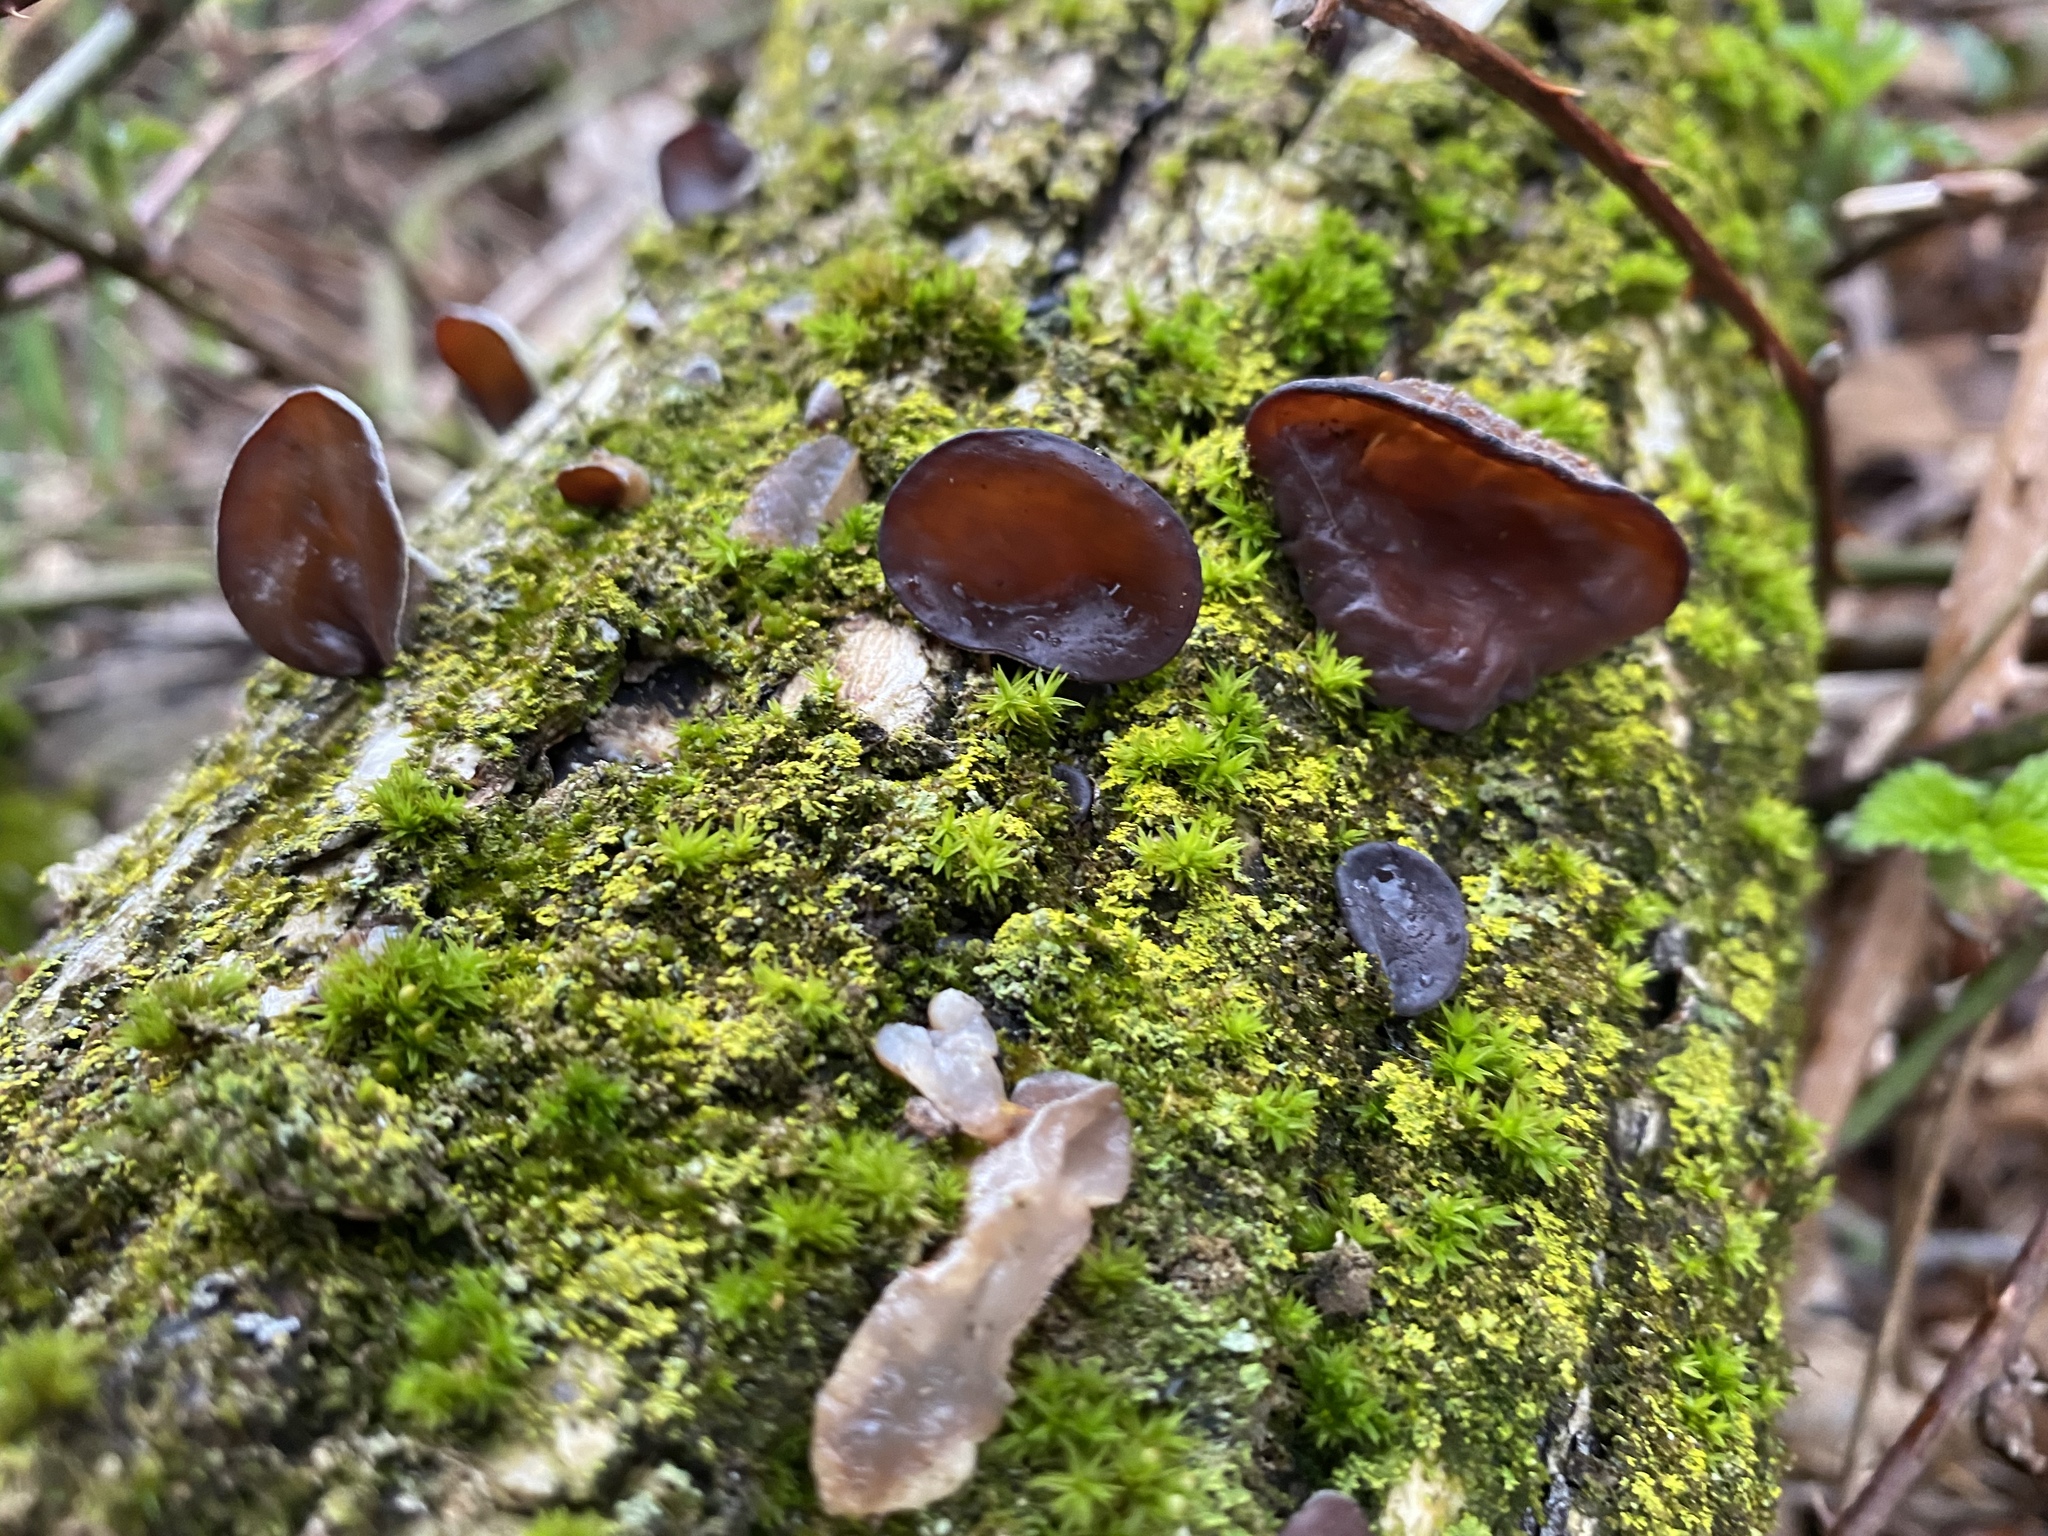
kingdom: Fungi
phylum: Basidiomycota
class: Agaricomycetes
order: Auriculariales
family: Auriculariaceae
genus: Auricularia
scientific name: Auricularia
